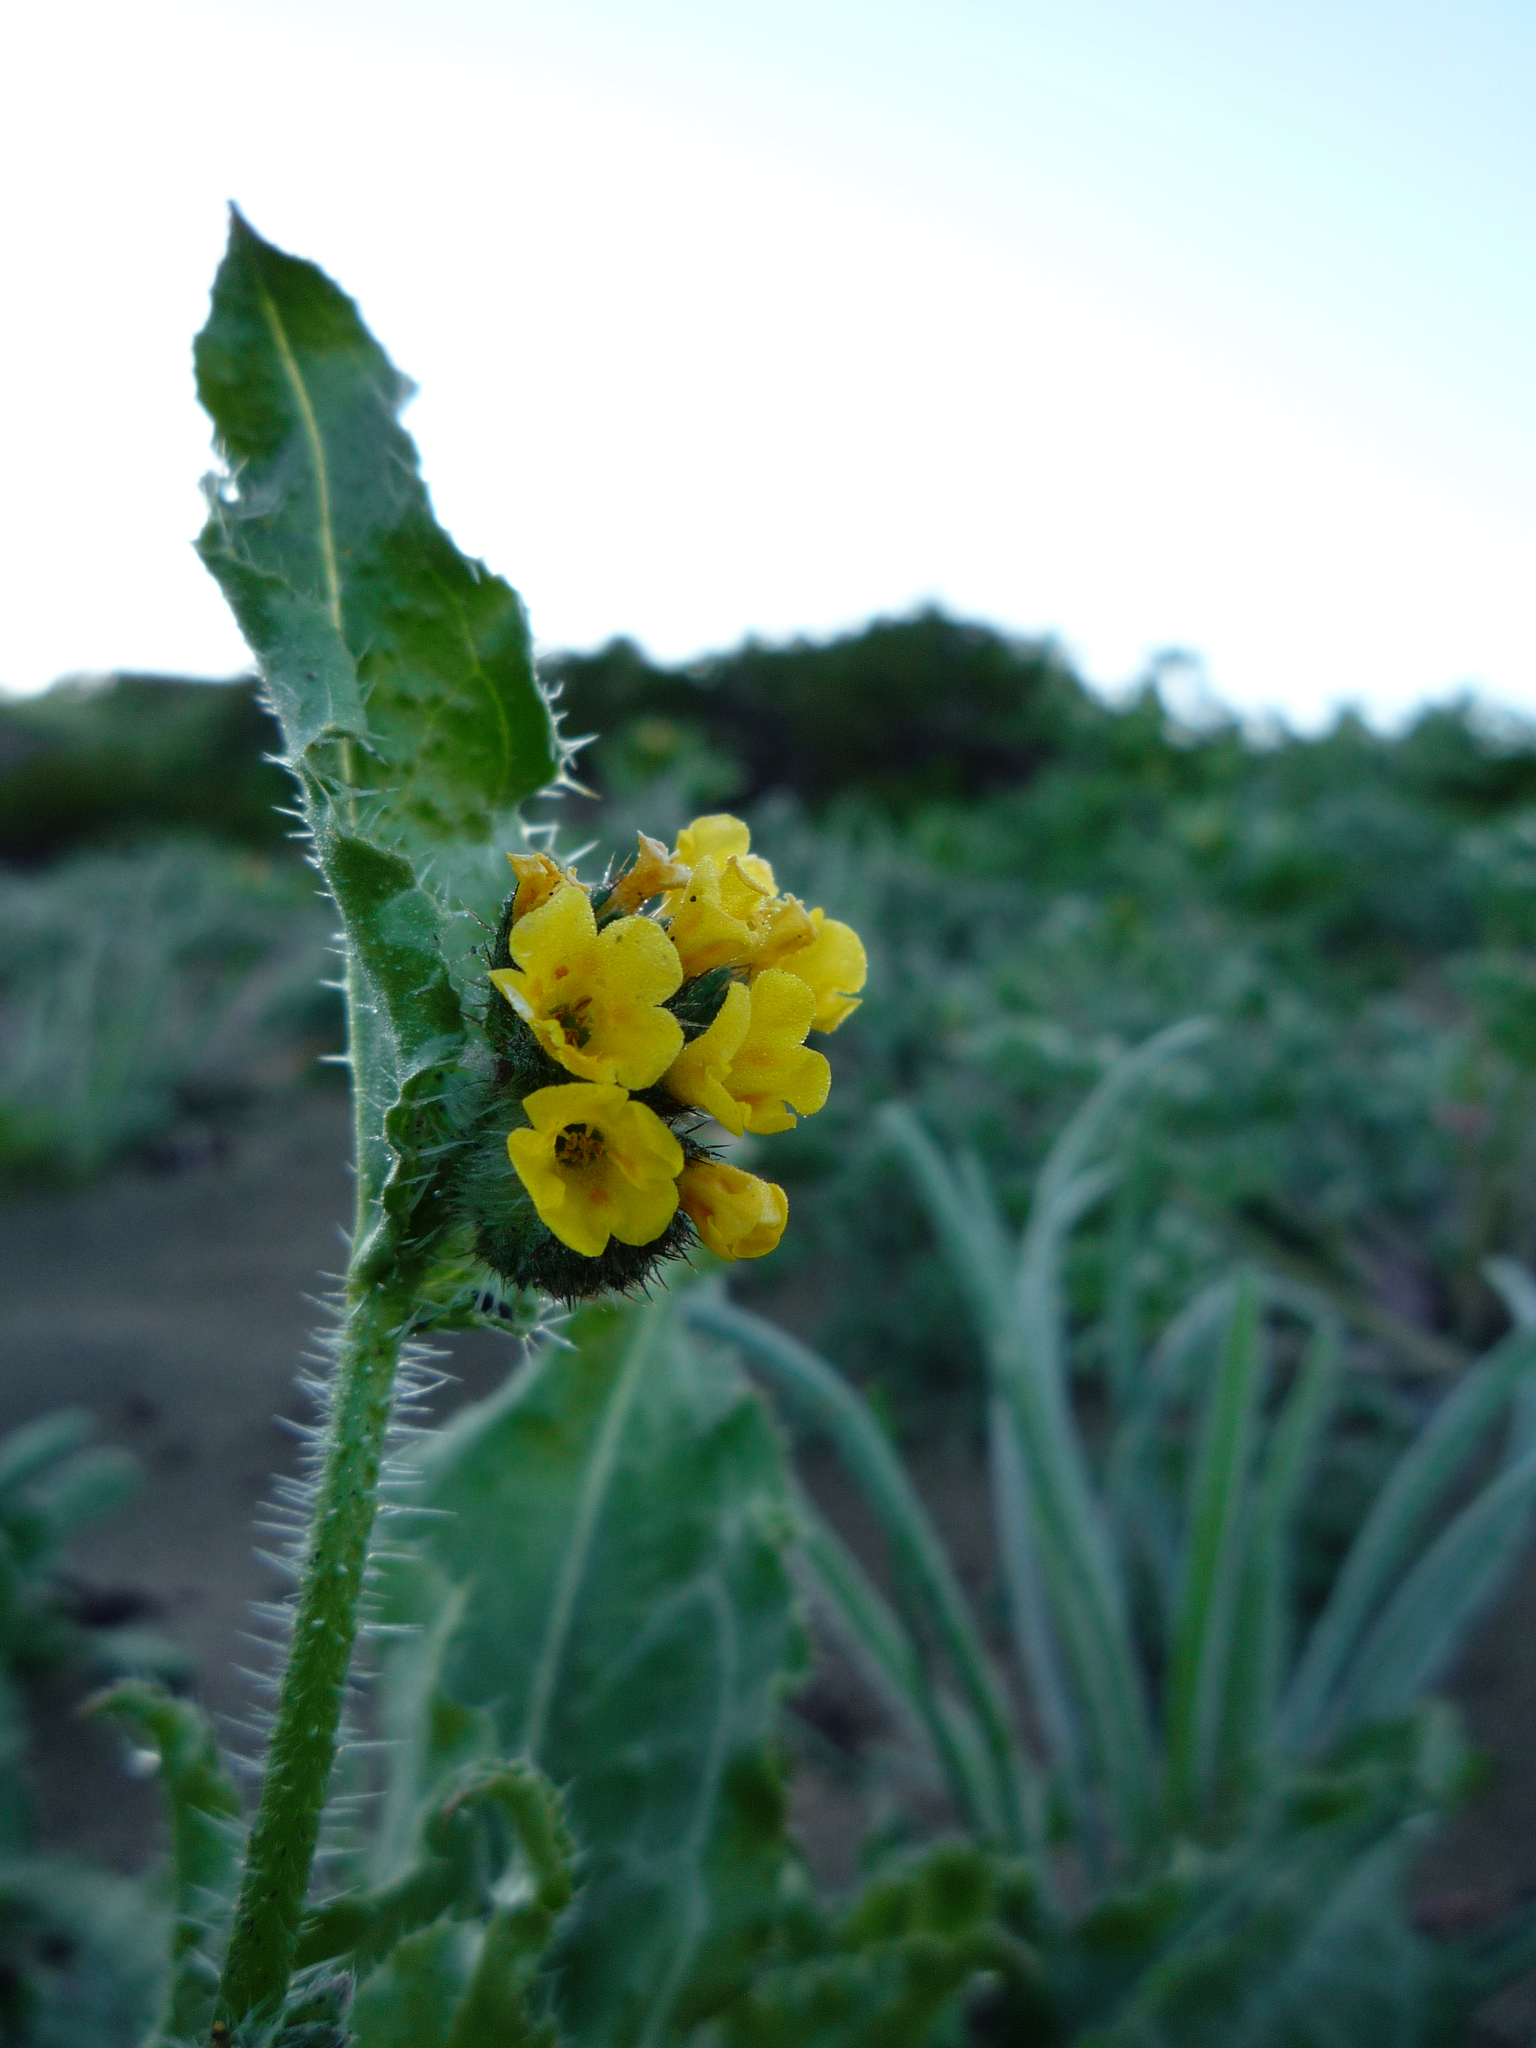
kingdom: Plantae
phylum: Tracheophyta
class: Magnoliopsida
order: Boraginales
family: Boraginaceae
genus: Amsinckia
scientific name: Amsinckia spectabilis
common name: Seaside fiddleneck
